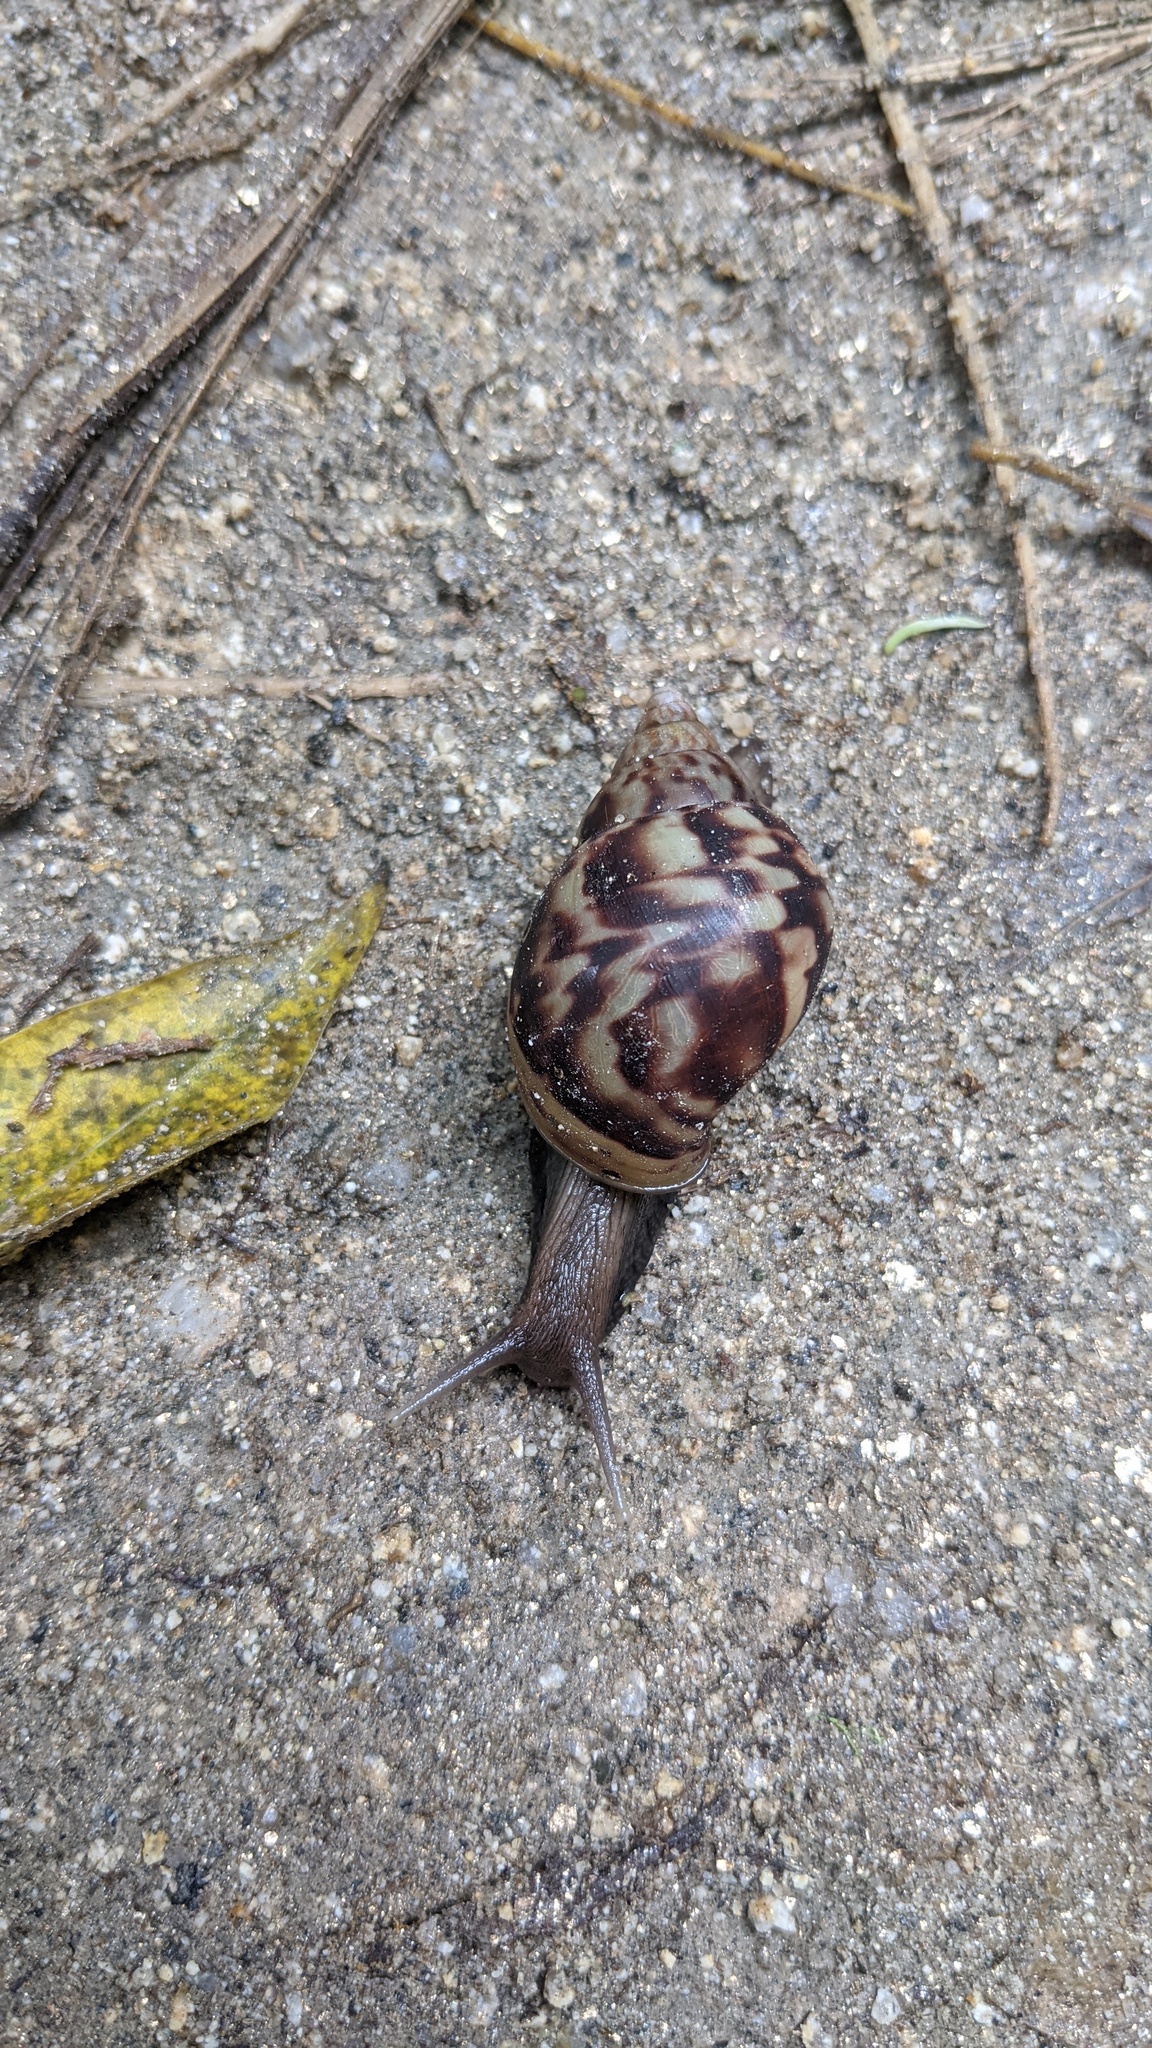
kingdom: Animalia
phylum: Mollusca
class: Gastropoda
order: Stylommatophora
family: Achatinidae
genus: Lissachatina
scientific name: Lissachatina fulica
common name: Giant african snail
